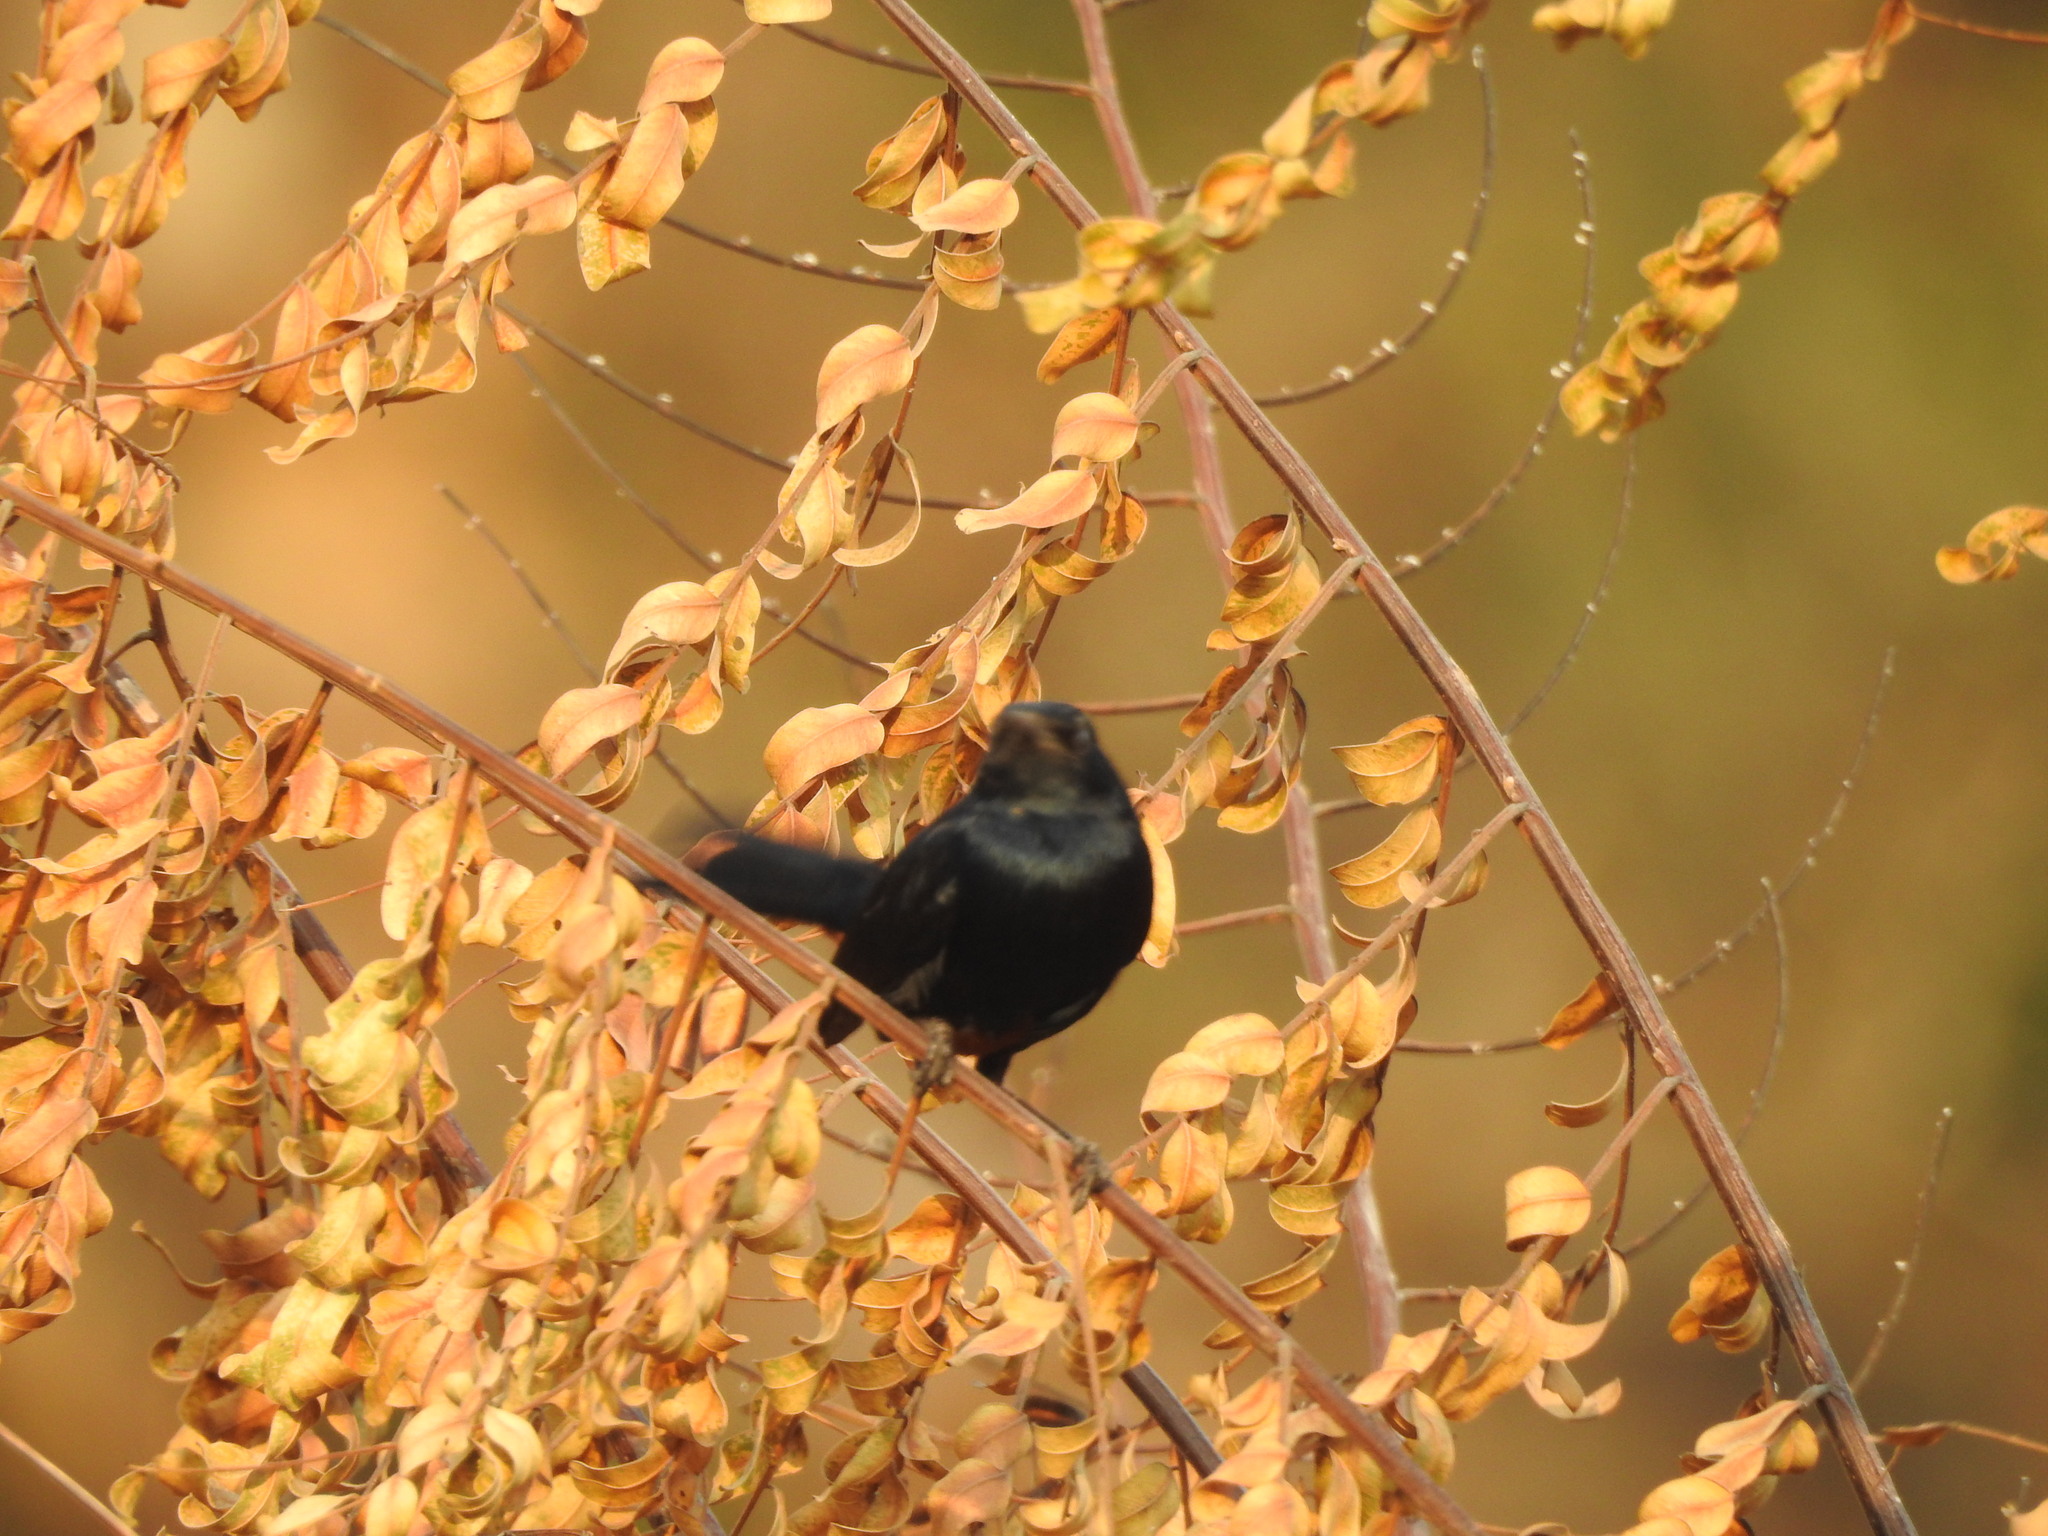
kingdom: Animalia
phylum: Chordata
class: Aves
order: Passeriformes
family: Muscicapidae
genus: Saxicoloides
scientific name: Saxicoloides fulicatus
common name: Indian robin
